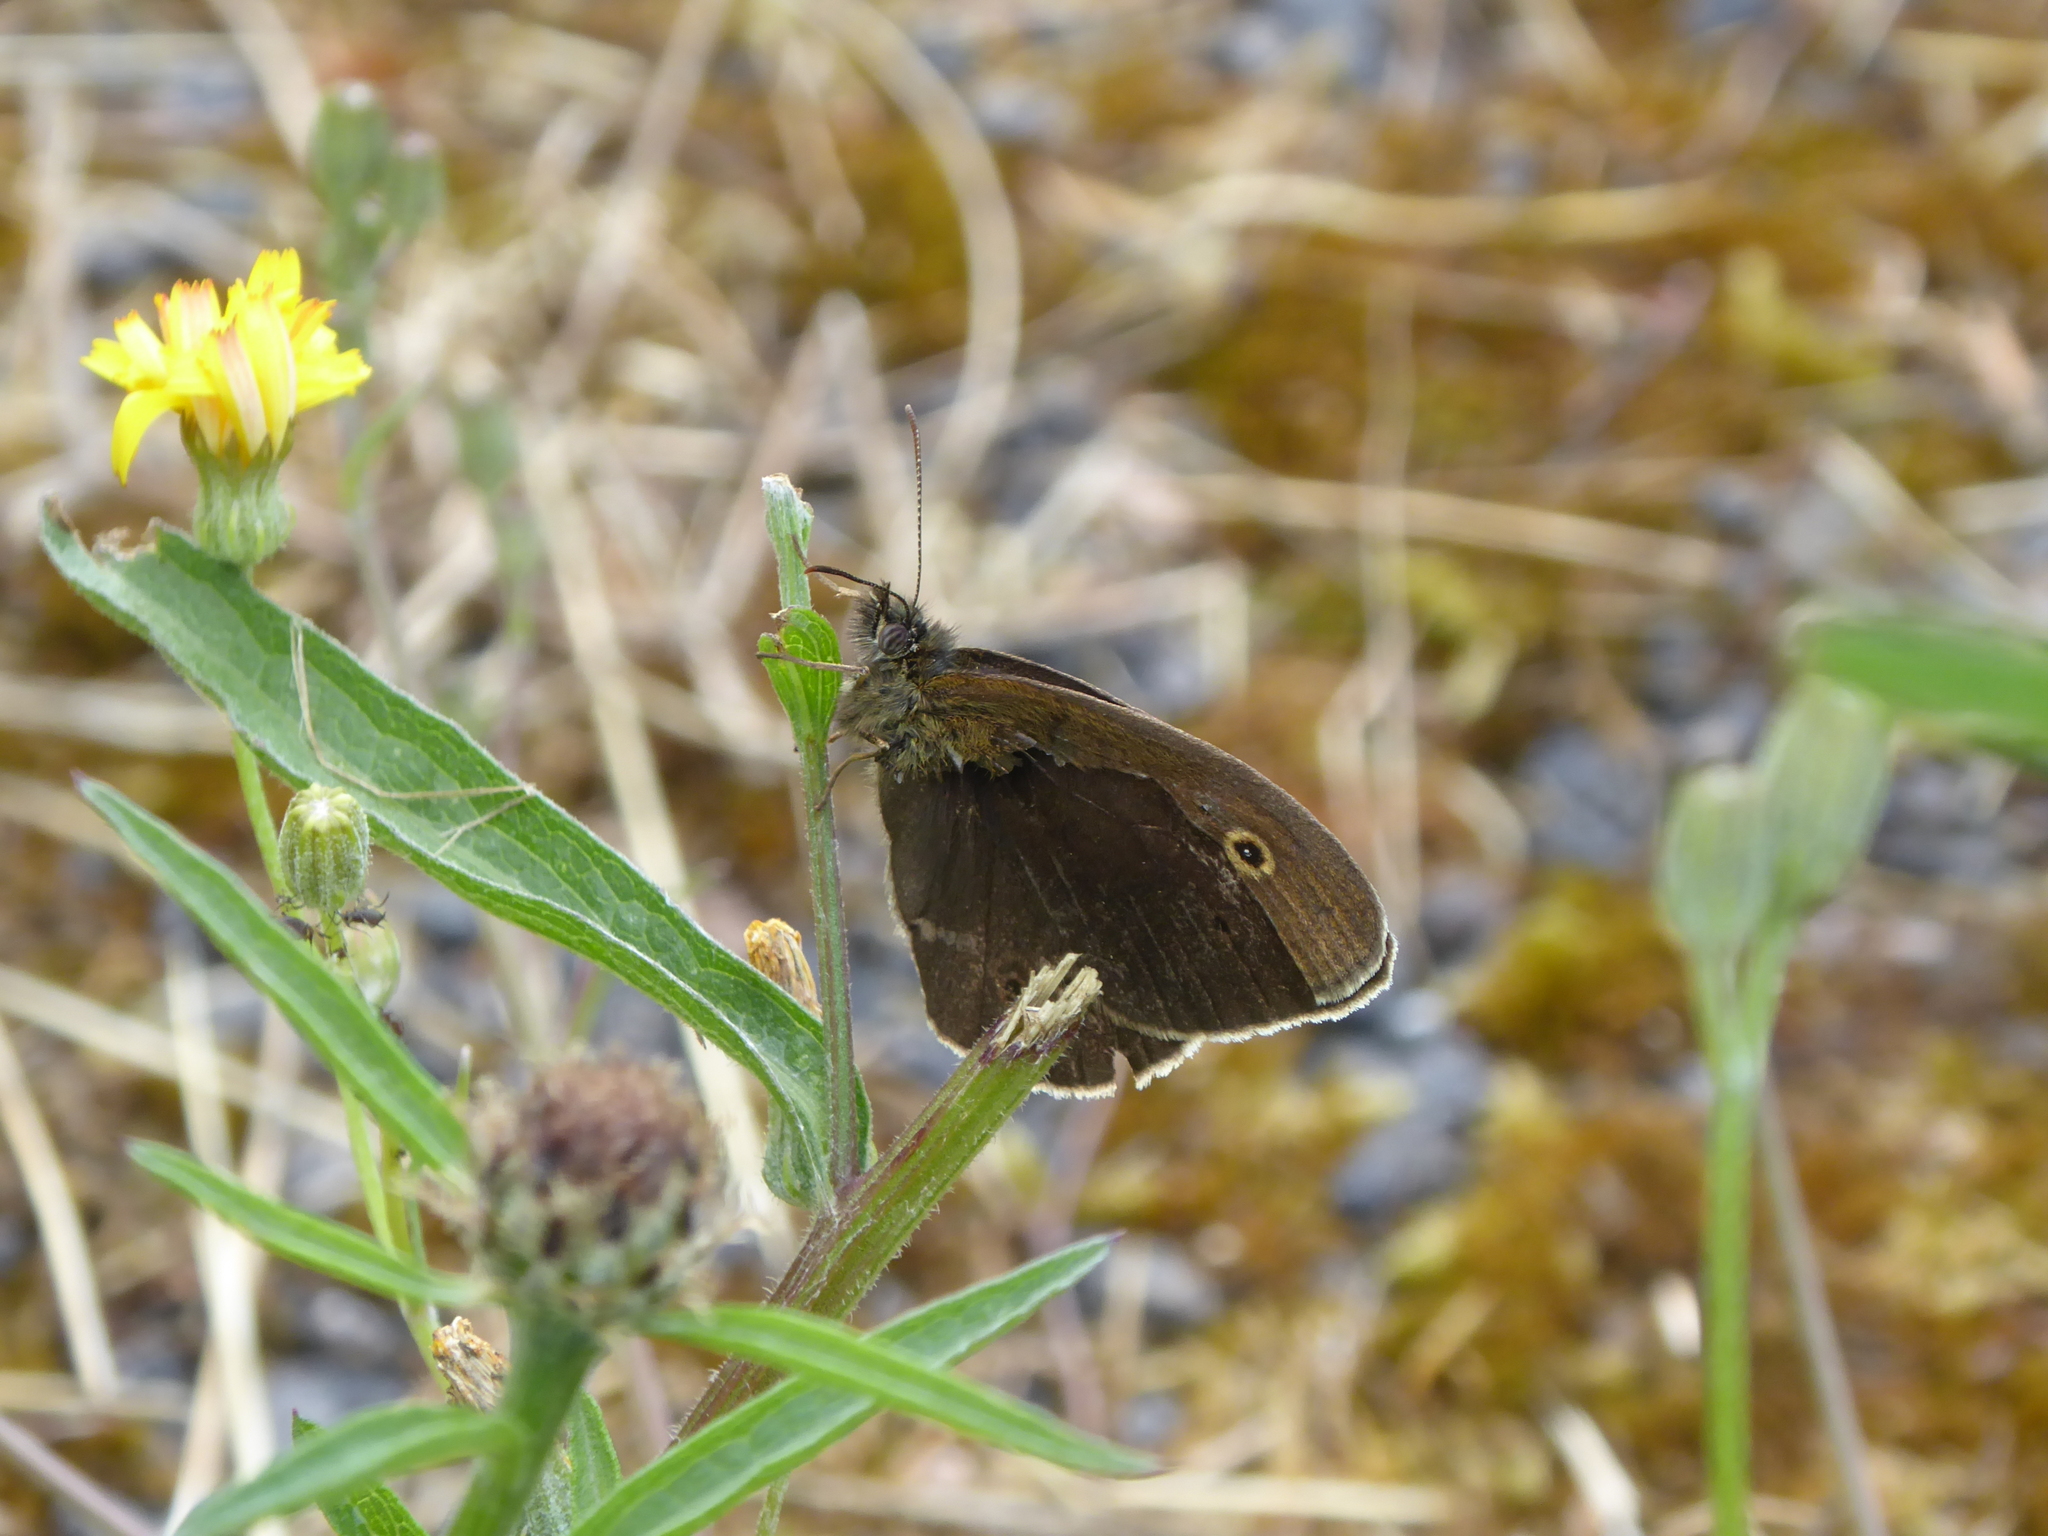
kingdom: Animalia
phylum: Arthropoda
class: Insecta
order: Lepidoptera
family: Nymphalidae
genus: Aphantopus
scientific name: Aphantopus hyperantus
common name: Ringlet
